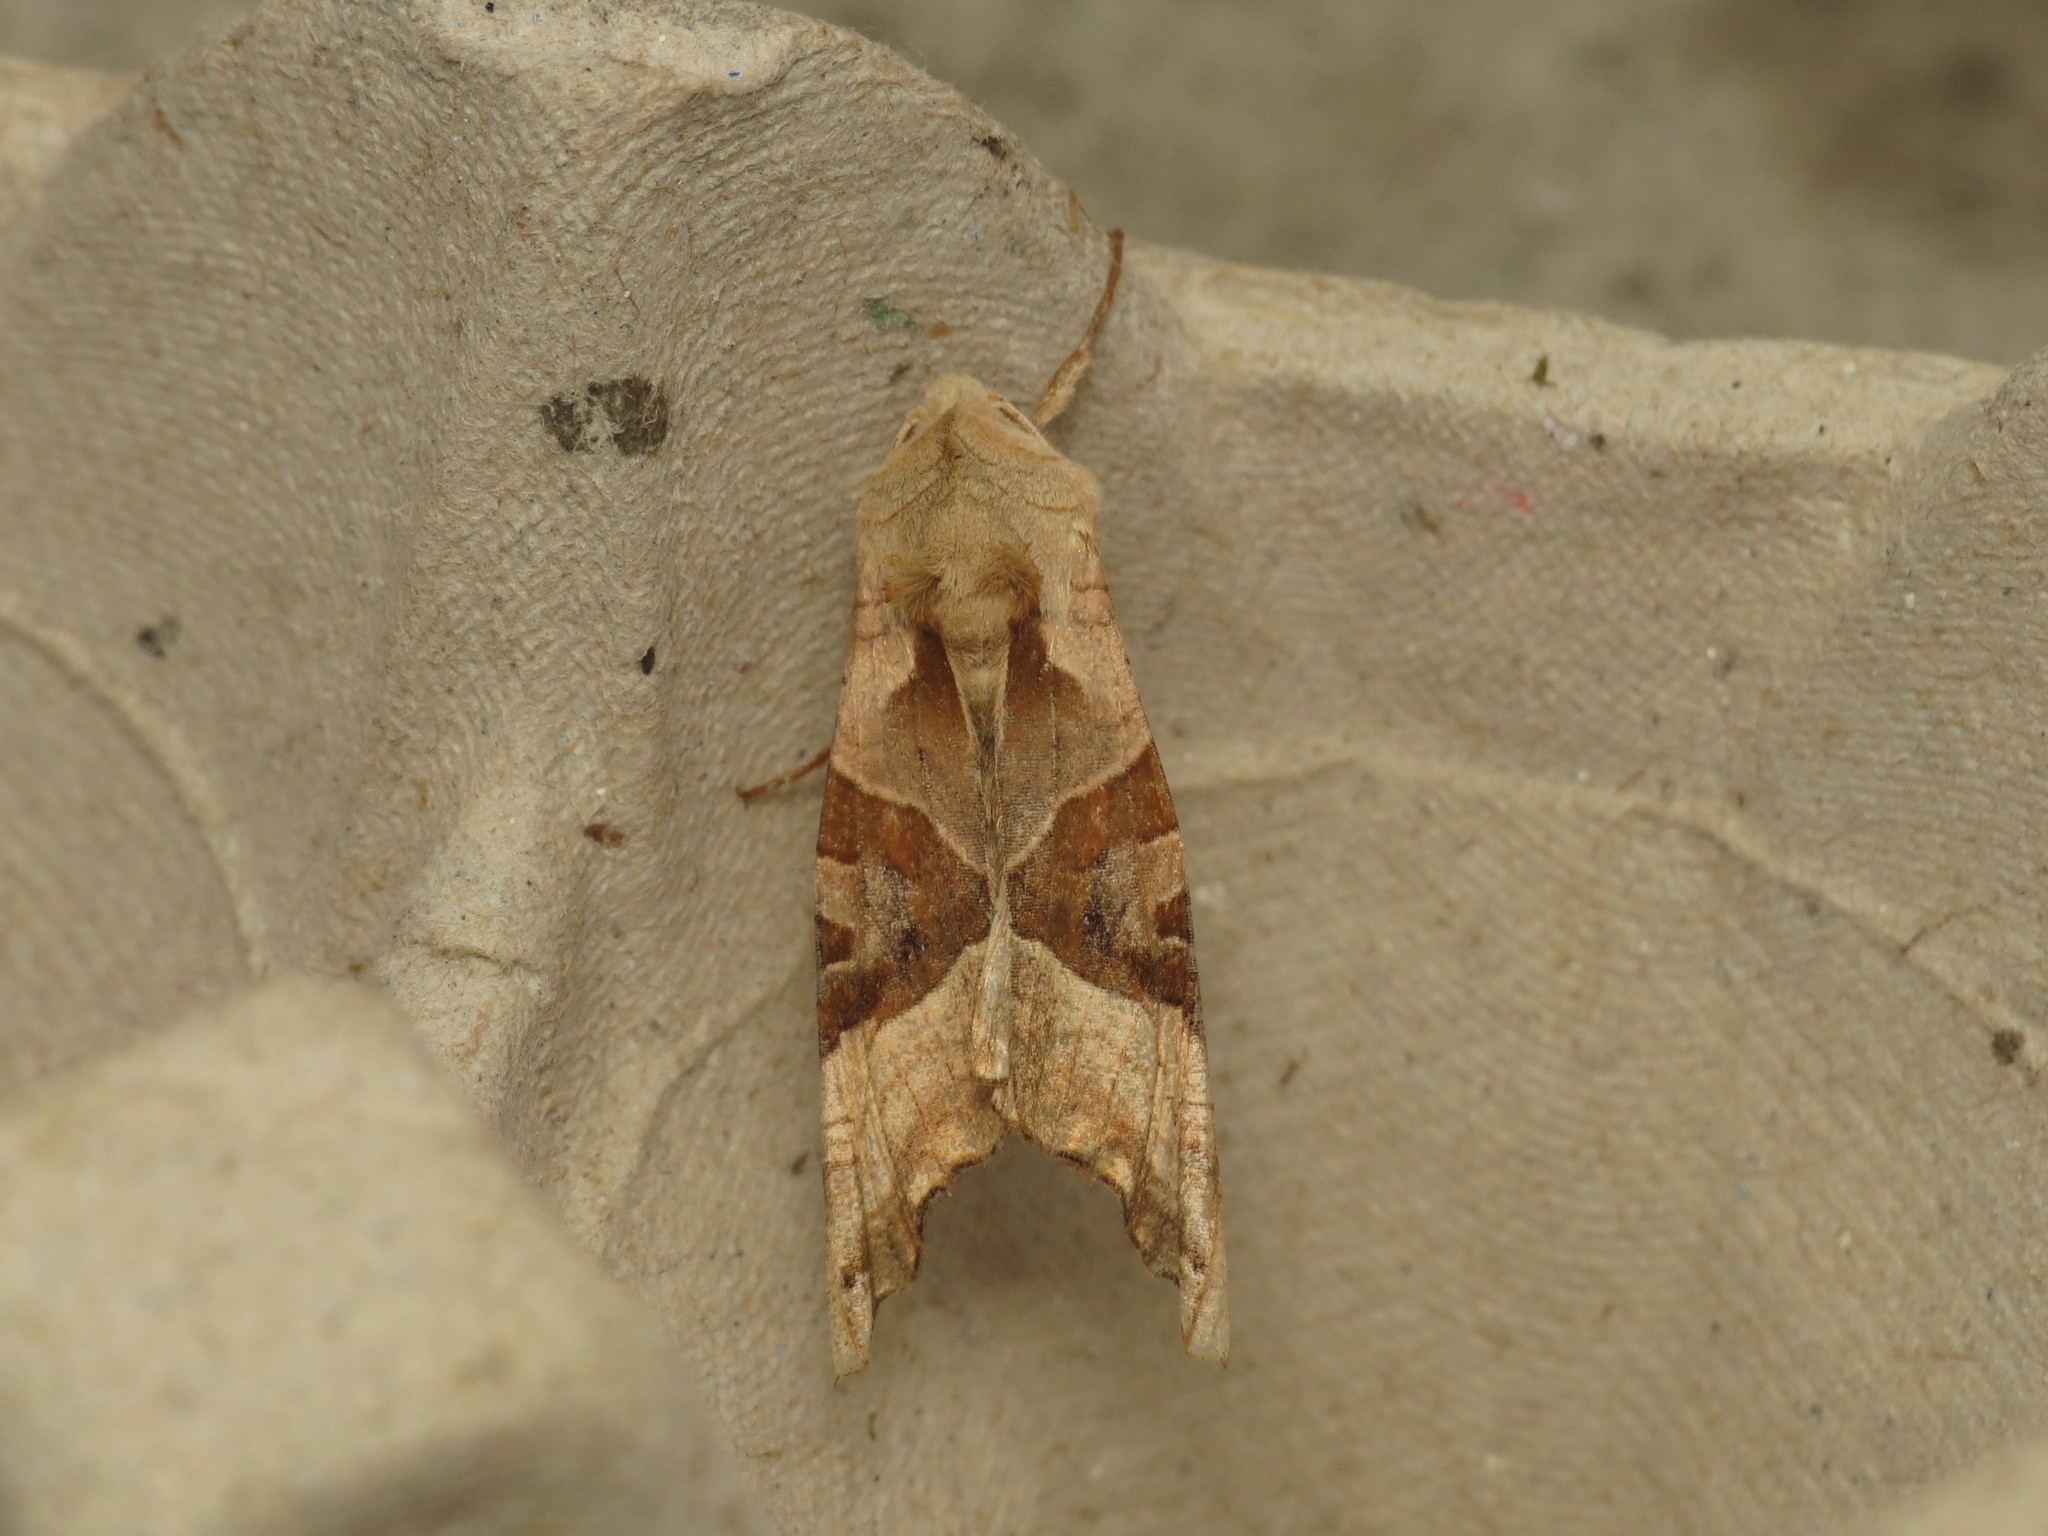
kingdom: Animalia
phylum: Arthropoda
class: Insecta
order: Lepidoptera
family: Noctuidae
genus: Phlogophora
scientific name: Phlogophora meticulosa
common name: Angle shades
